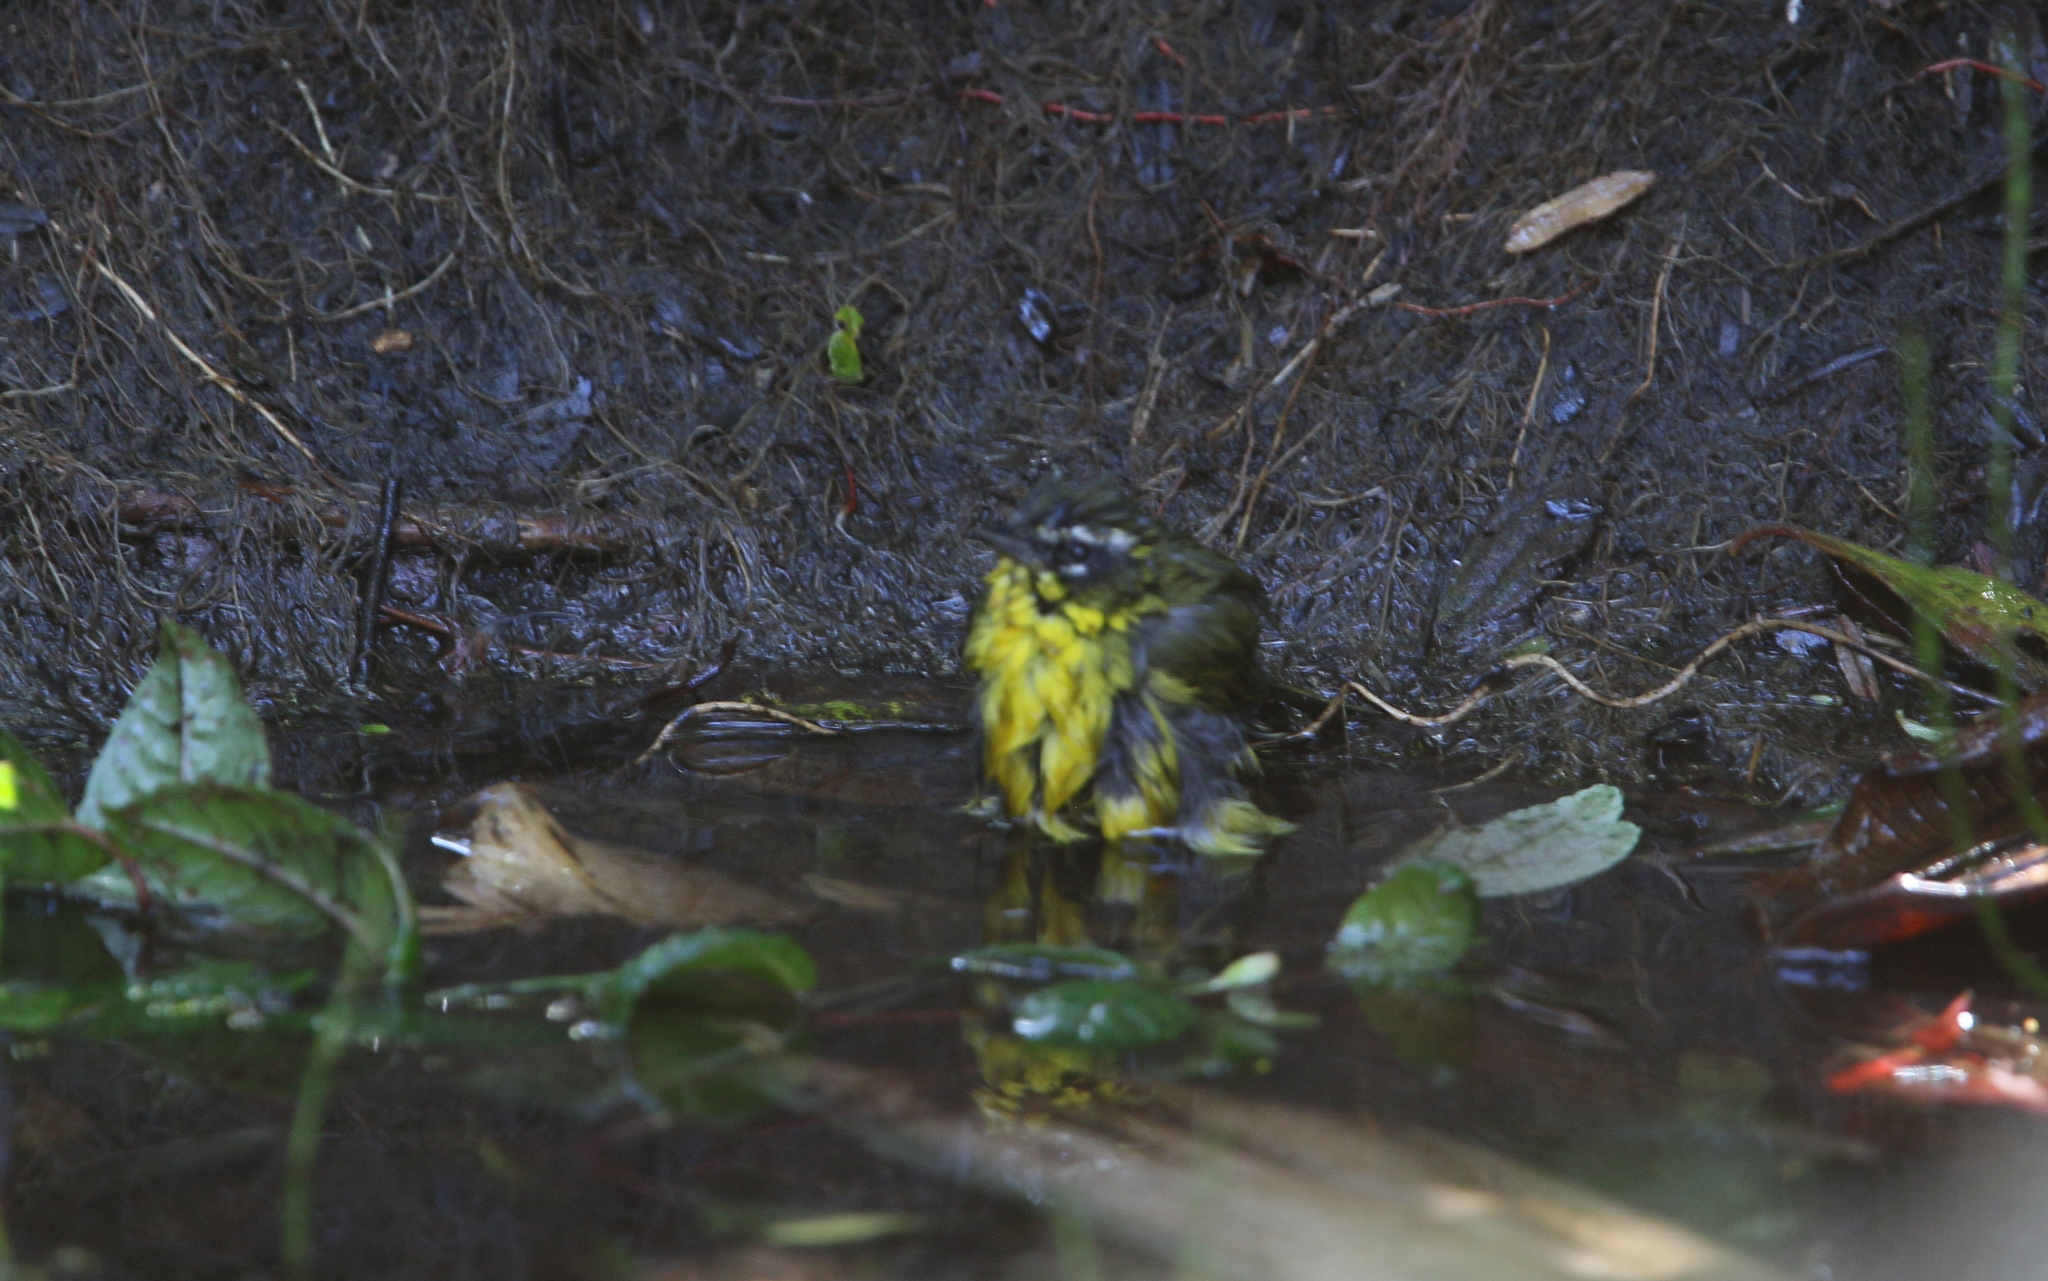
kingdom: Animalia
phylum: Chordata
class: Aves
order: Passeriformes
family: Thraupidae
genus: Thlypopsis
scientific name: Thlypopsis superciliaris
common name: Superciliaried hemispingus
